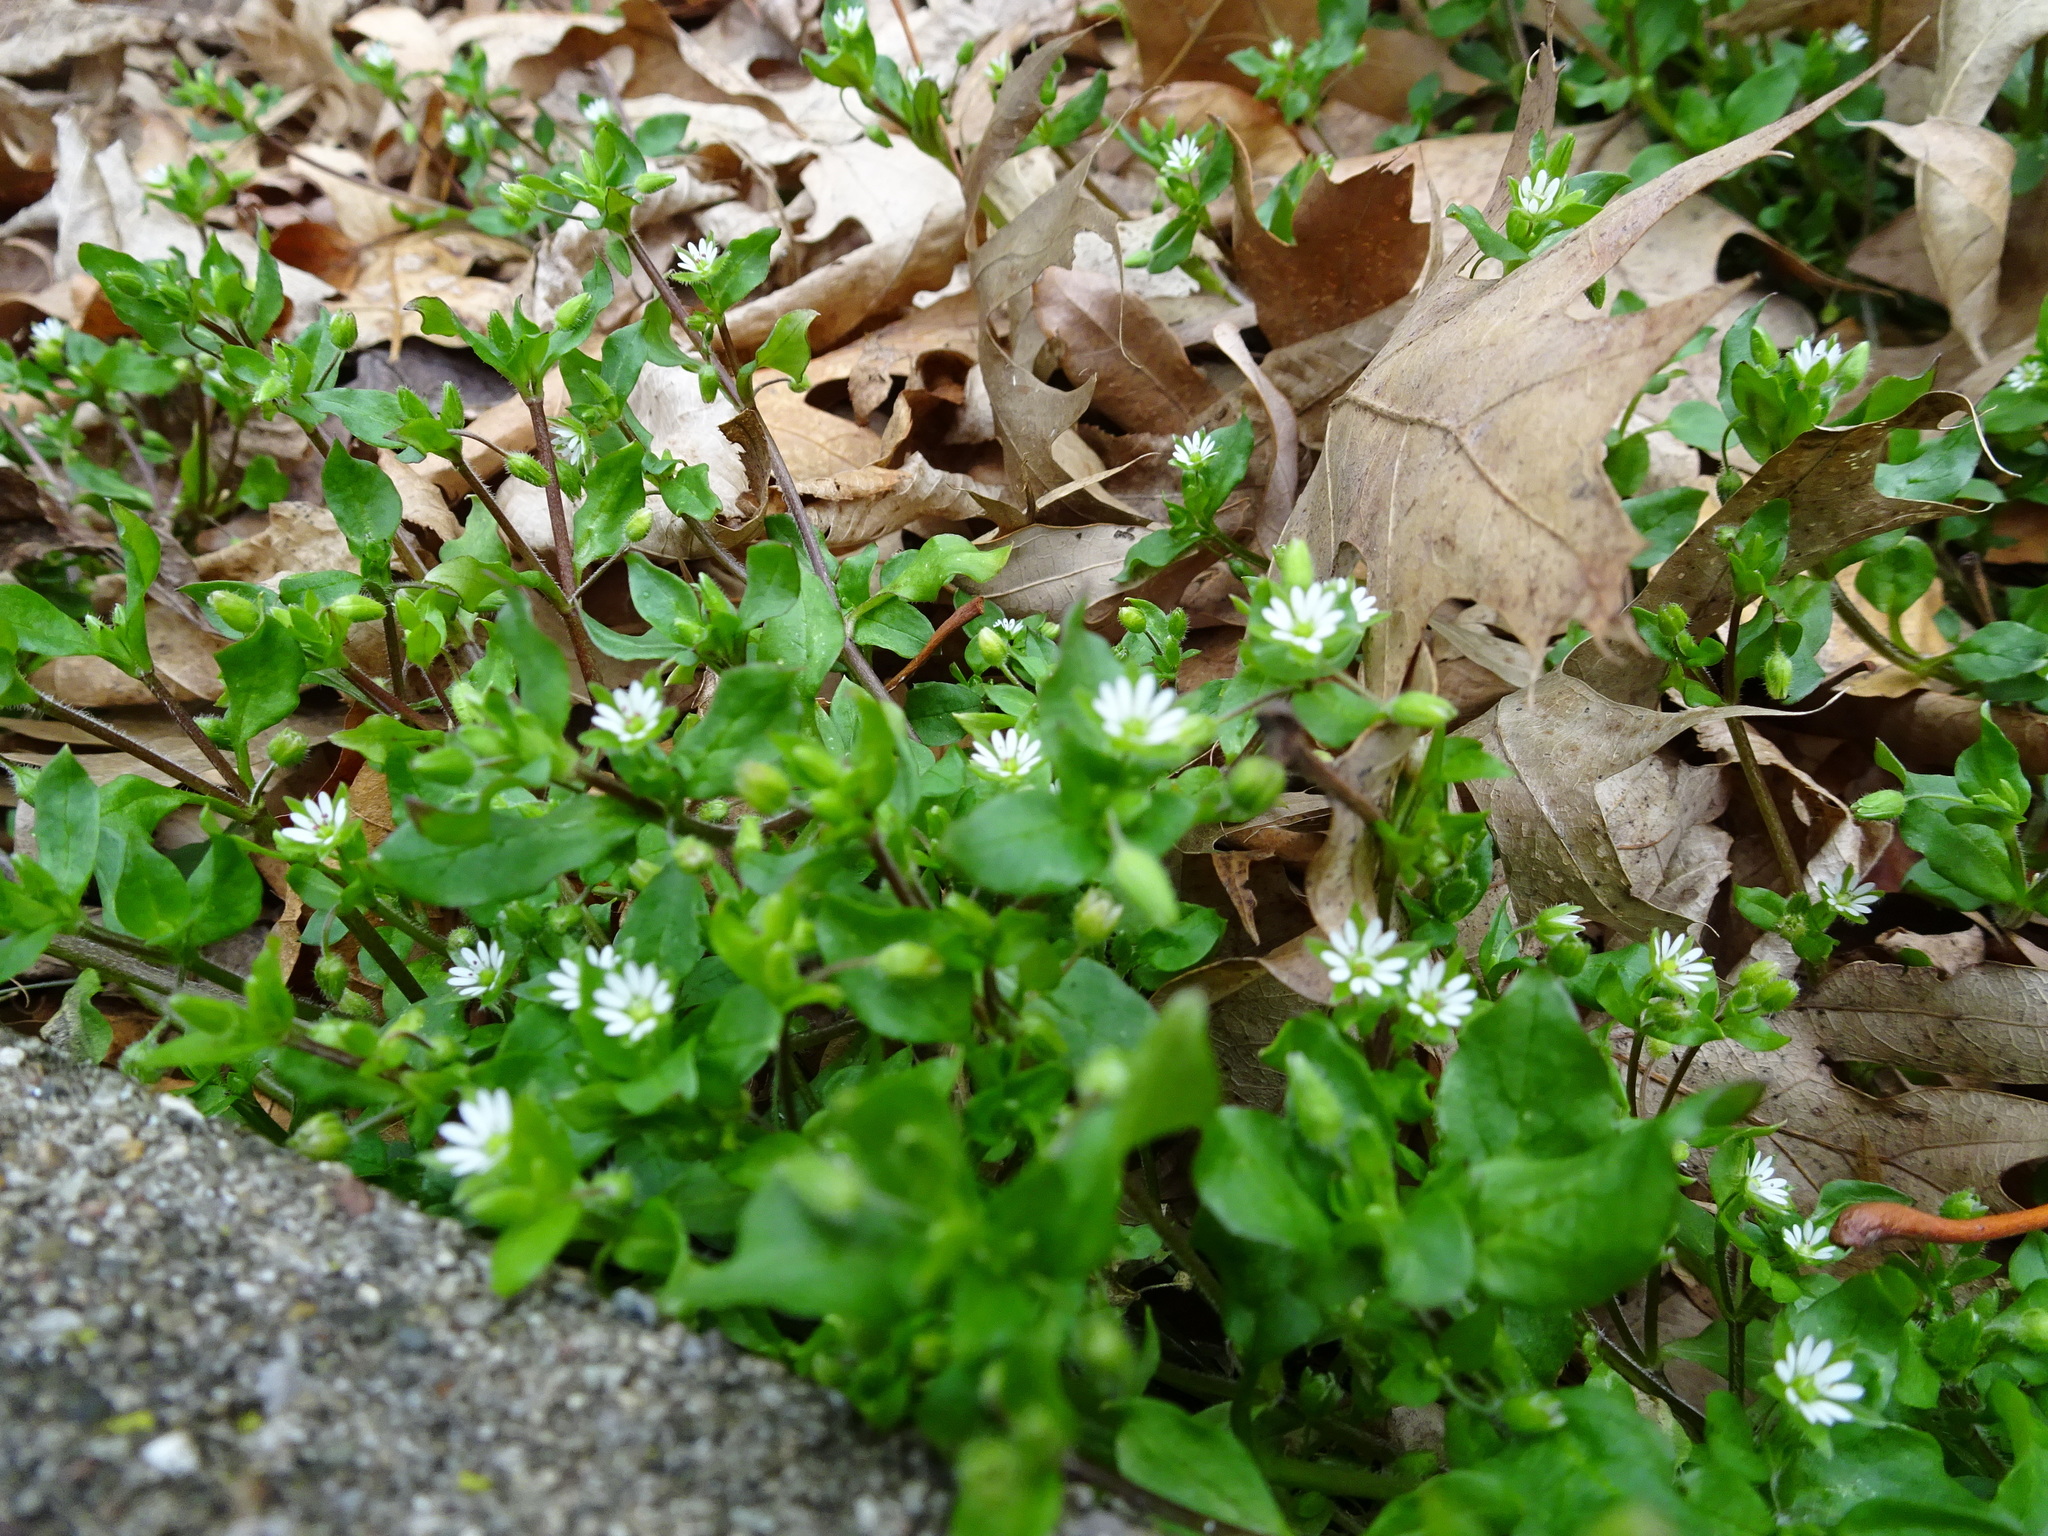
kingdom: Plantae
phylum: Tracheophyta
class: Magnoliopsida
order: Caryophyllales
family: Caryophyllaceae
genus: Stellaria
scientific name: Stellaria media
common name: Common chickweed
